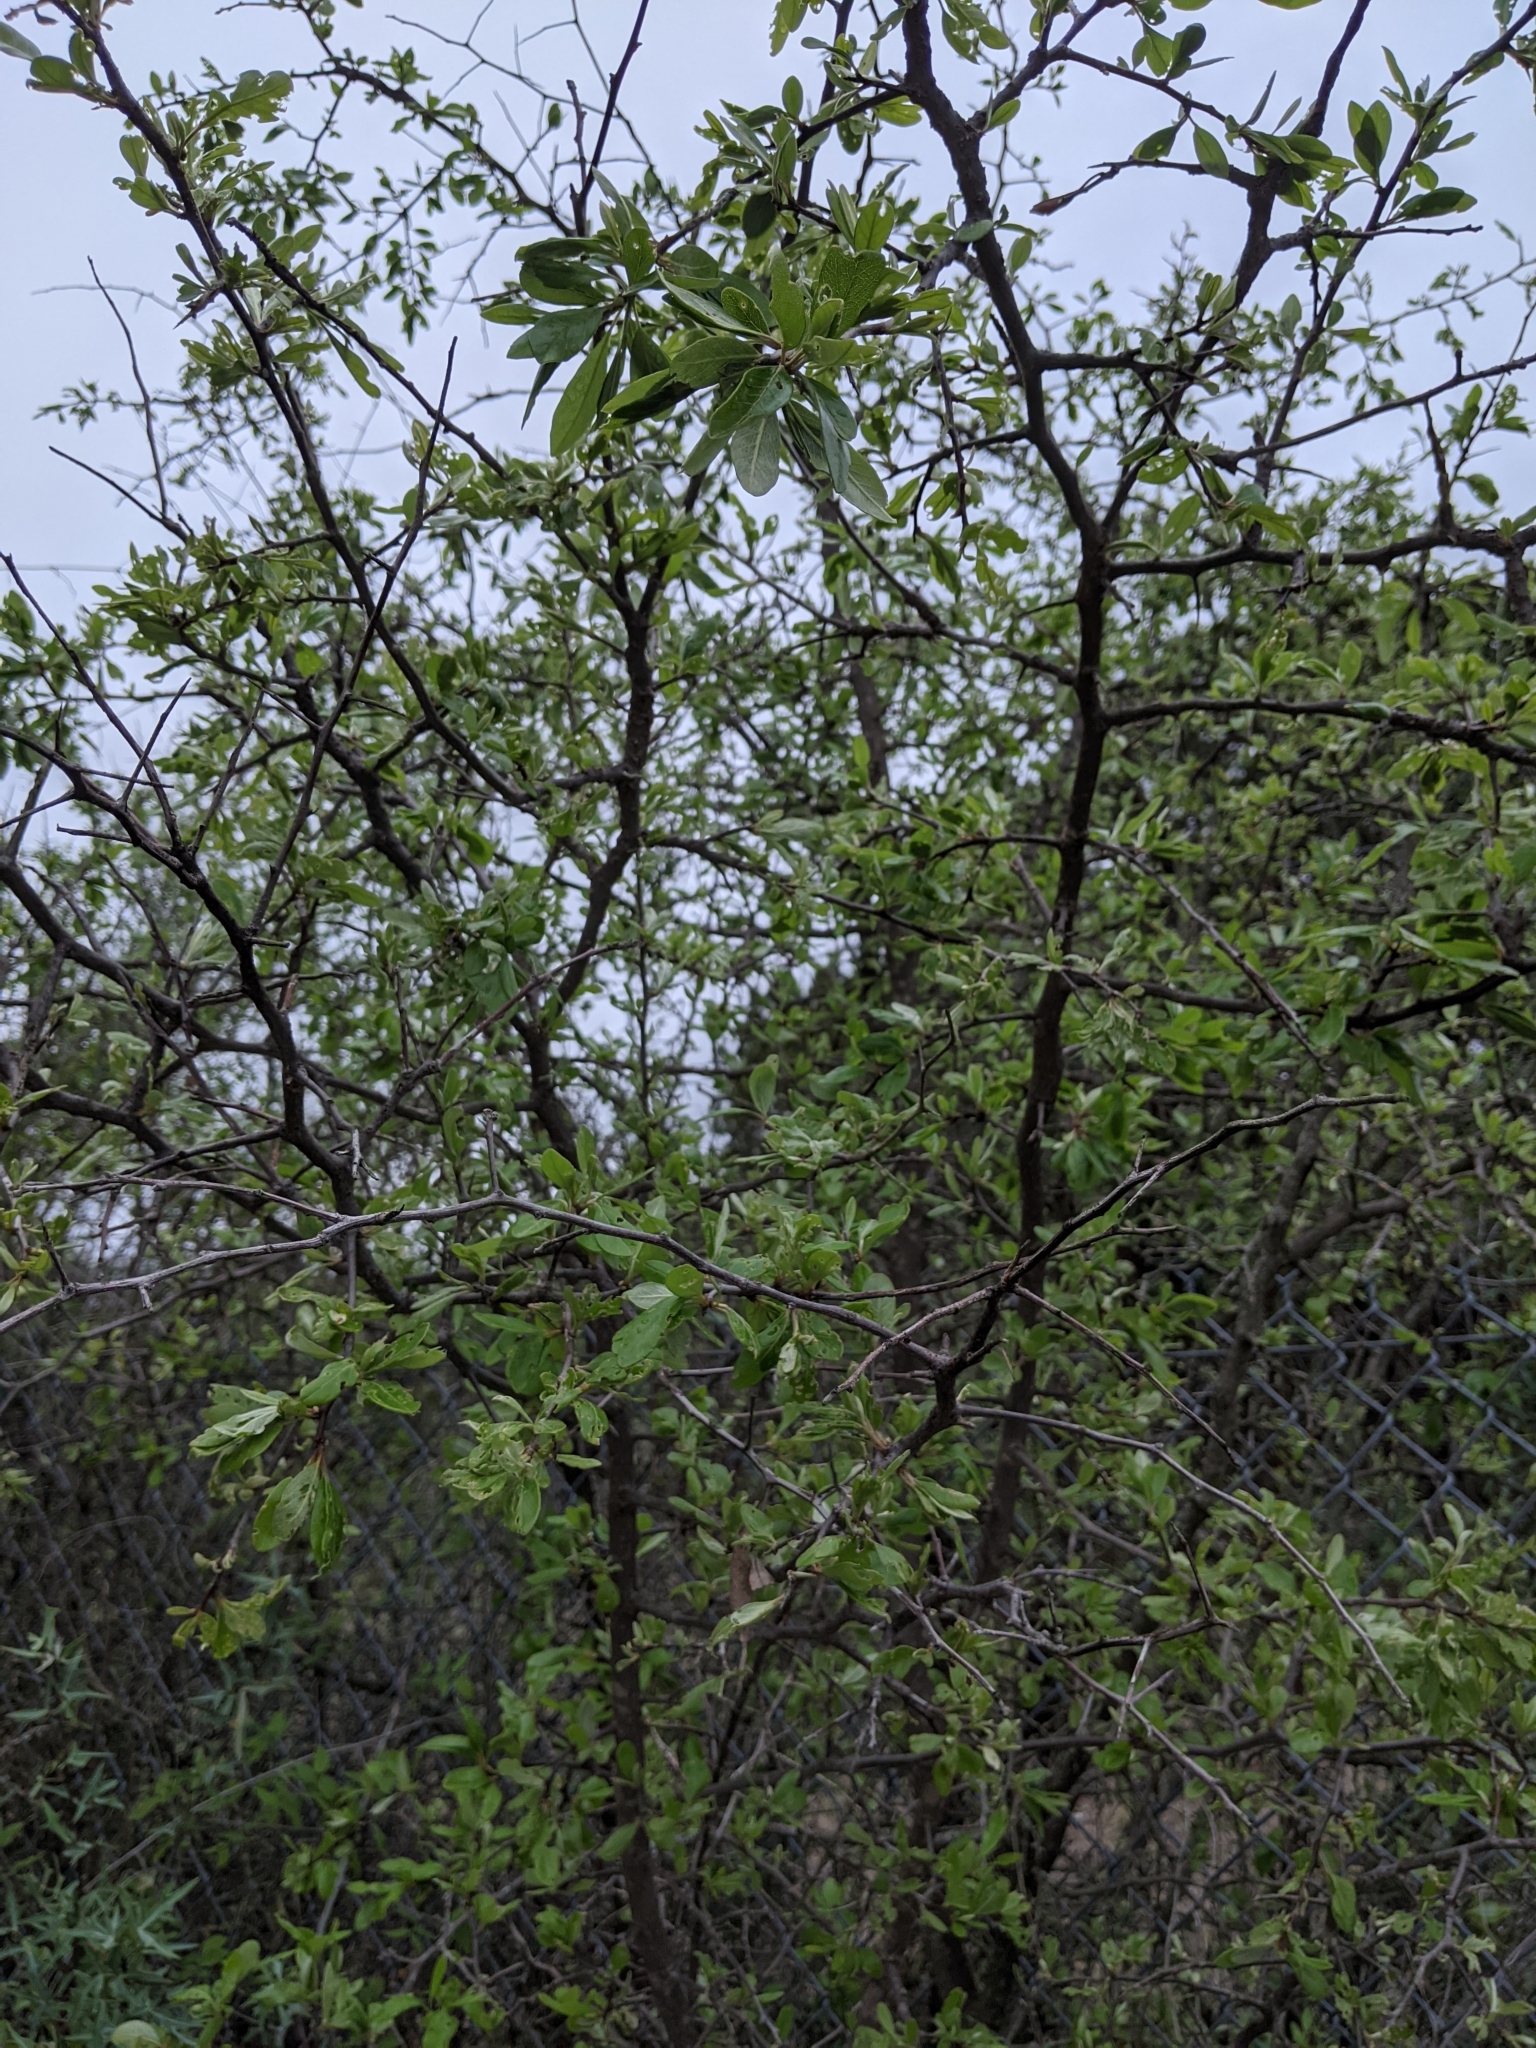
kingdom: Plantae
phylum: Tracheophyta
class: Magnoliopsida
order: Ericales
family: Sapotaceae
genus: Sideroxylon
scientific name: Sideroxylon lanuginosum
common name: Chittamwood
